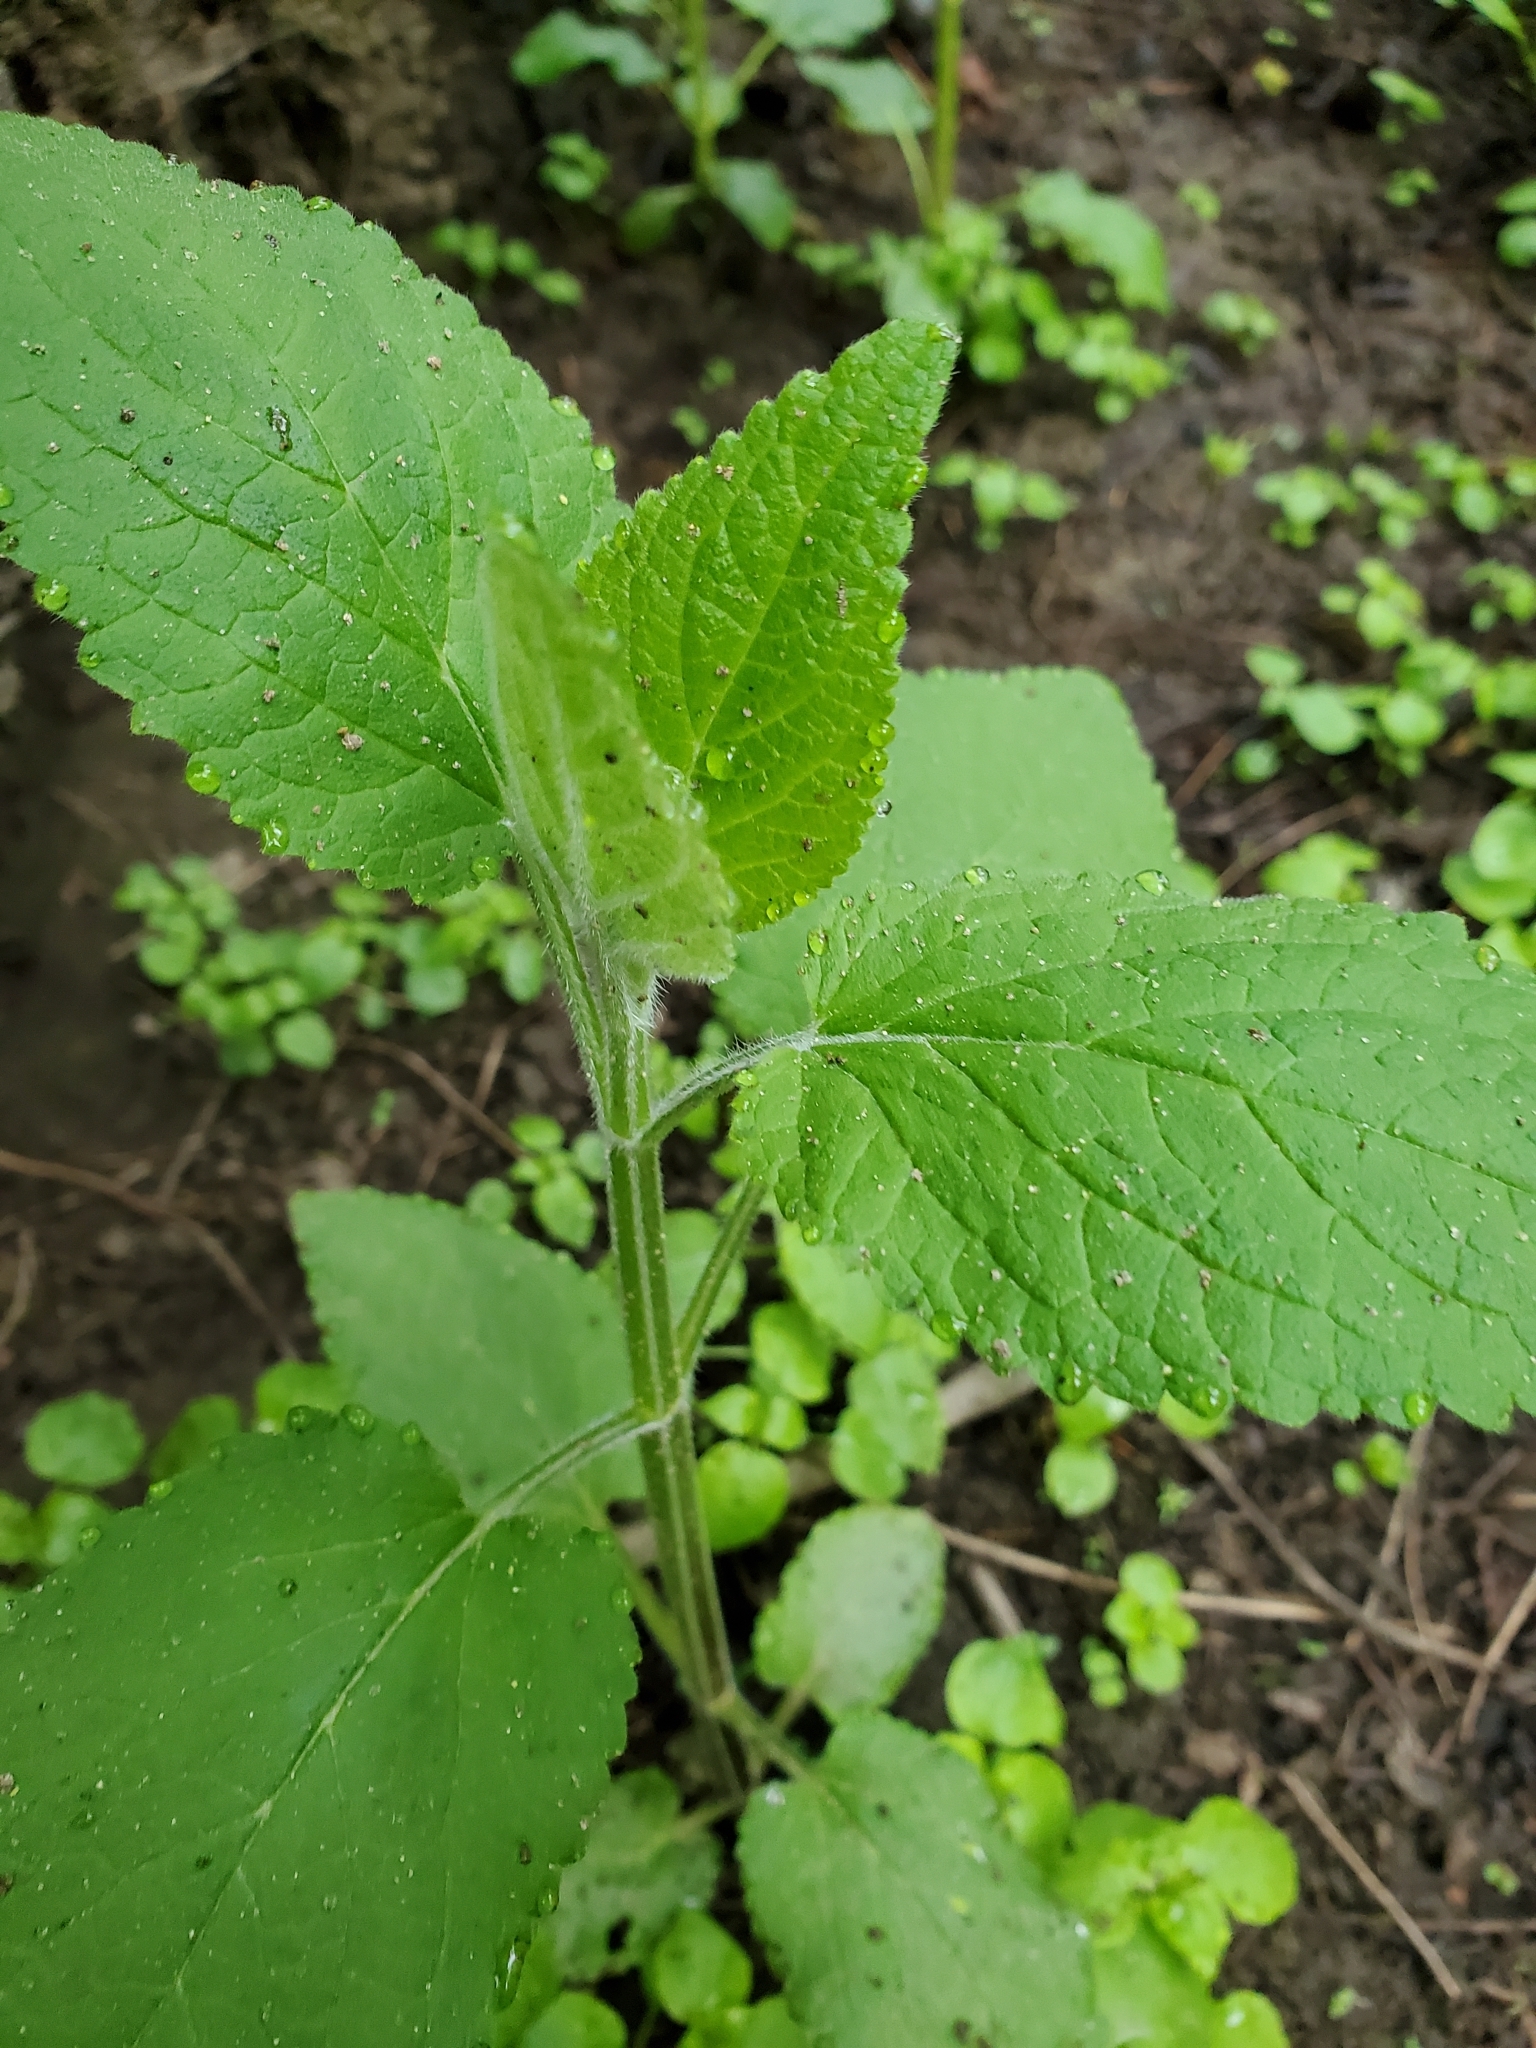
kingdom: Plantae
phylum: Tracheophyta
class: Magnoliopsida
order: Lamiales
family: Lamiaceae
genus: Stachys
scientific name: Stachys chamissonis
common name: Coastal hedge-nettle
